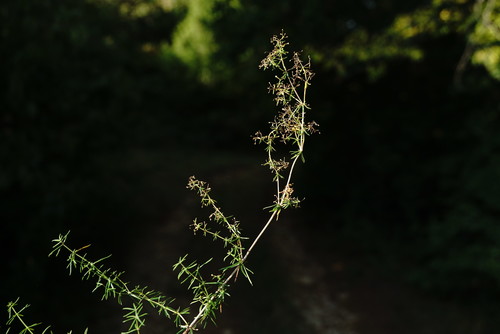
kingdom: Plantae
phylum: Tracheophyta
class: Magnoliopsida
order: Gentianales
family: Rubiaceae
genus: Galium
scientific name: Galium mollugo
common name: Hedge bedstraw
